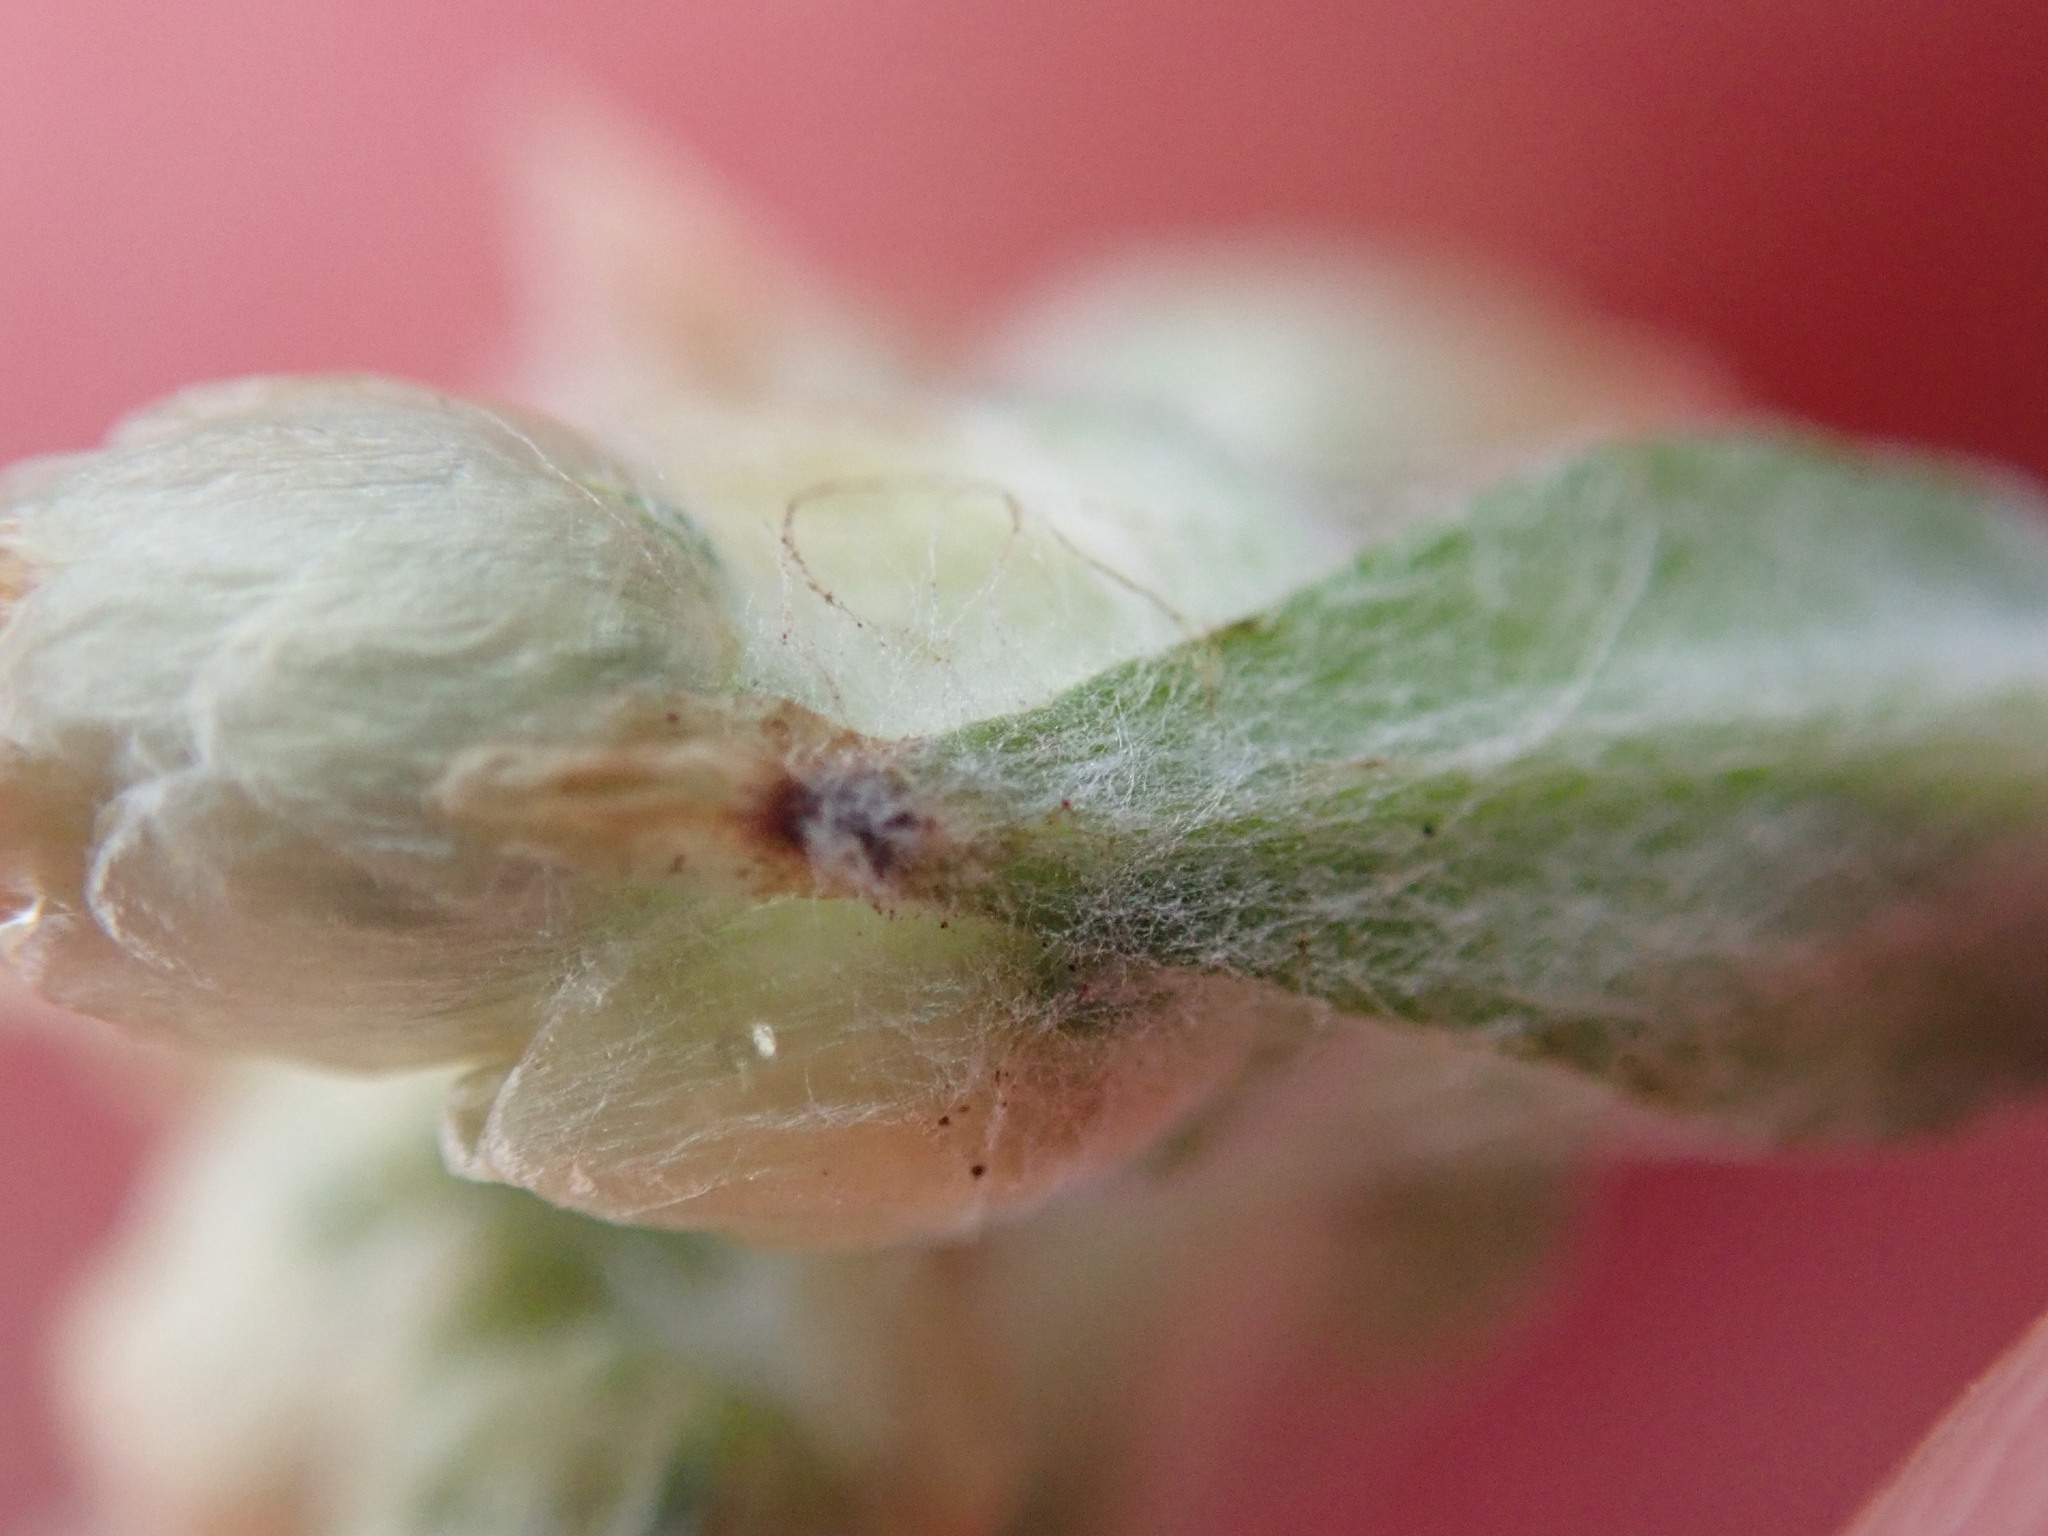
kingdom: Plantae
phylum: Tracheophyta
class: Magnoliopsida
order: Asterales
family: Asteraceae
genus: Helichrysum
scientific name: Helichrysum luteoalbum
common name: Daisy
